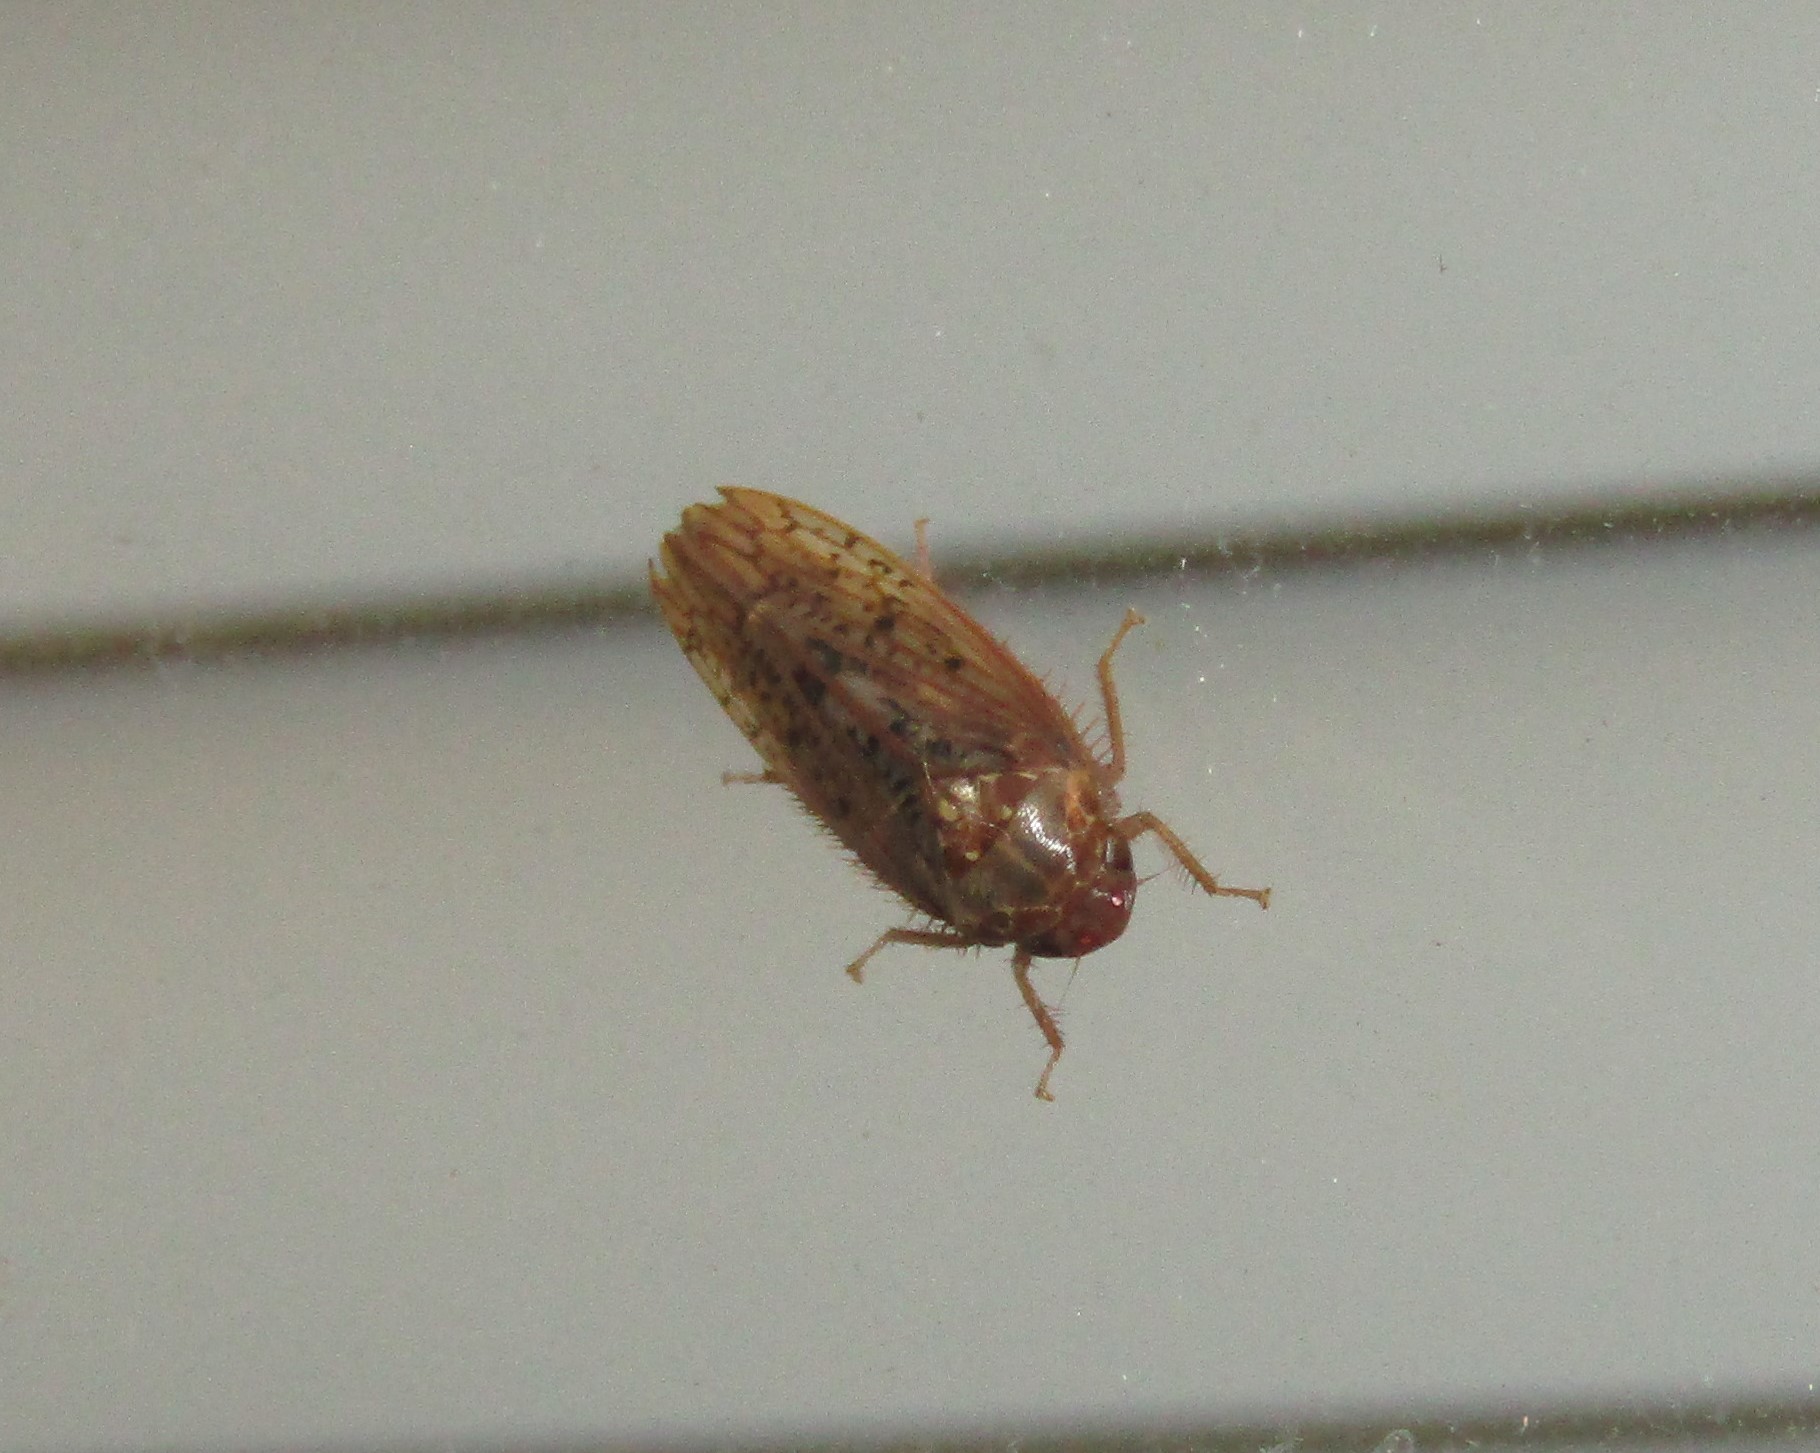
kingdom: Animalia
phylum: Arthropoda
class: Insecta
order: Hemiptera
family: Cicadellidae
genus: Ponana
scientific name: Ponana rubida
